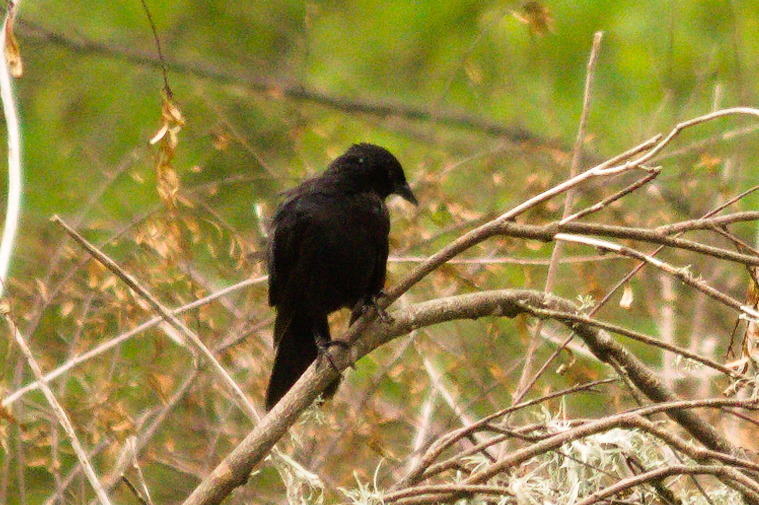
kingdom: Animalia
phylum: Chordata
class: Aves
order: Passeriformes
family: Icteridae
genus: Gnorimopsar
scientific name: Gnorimopsar chopi
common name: Chopi blackbird
